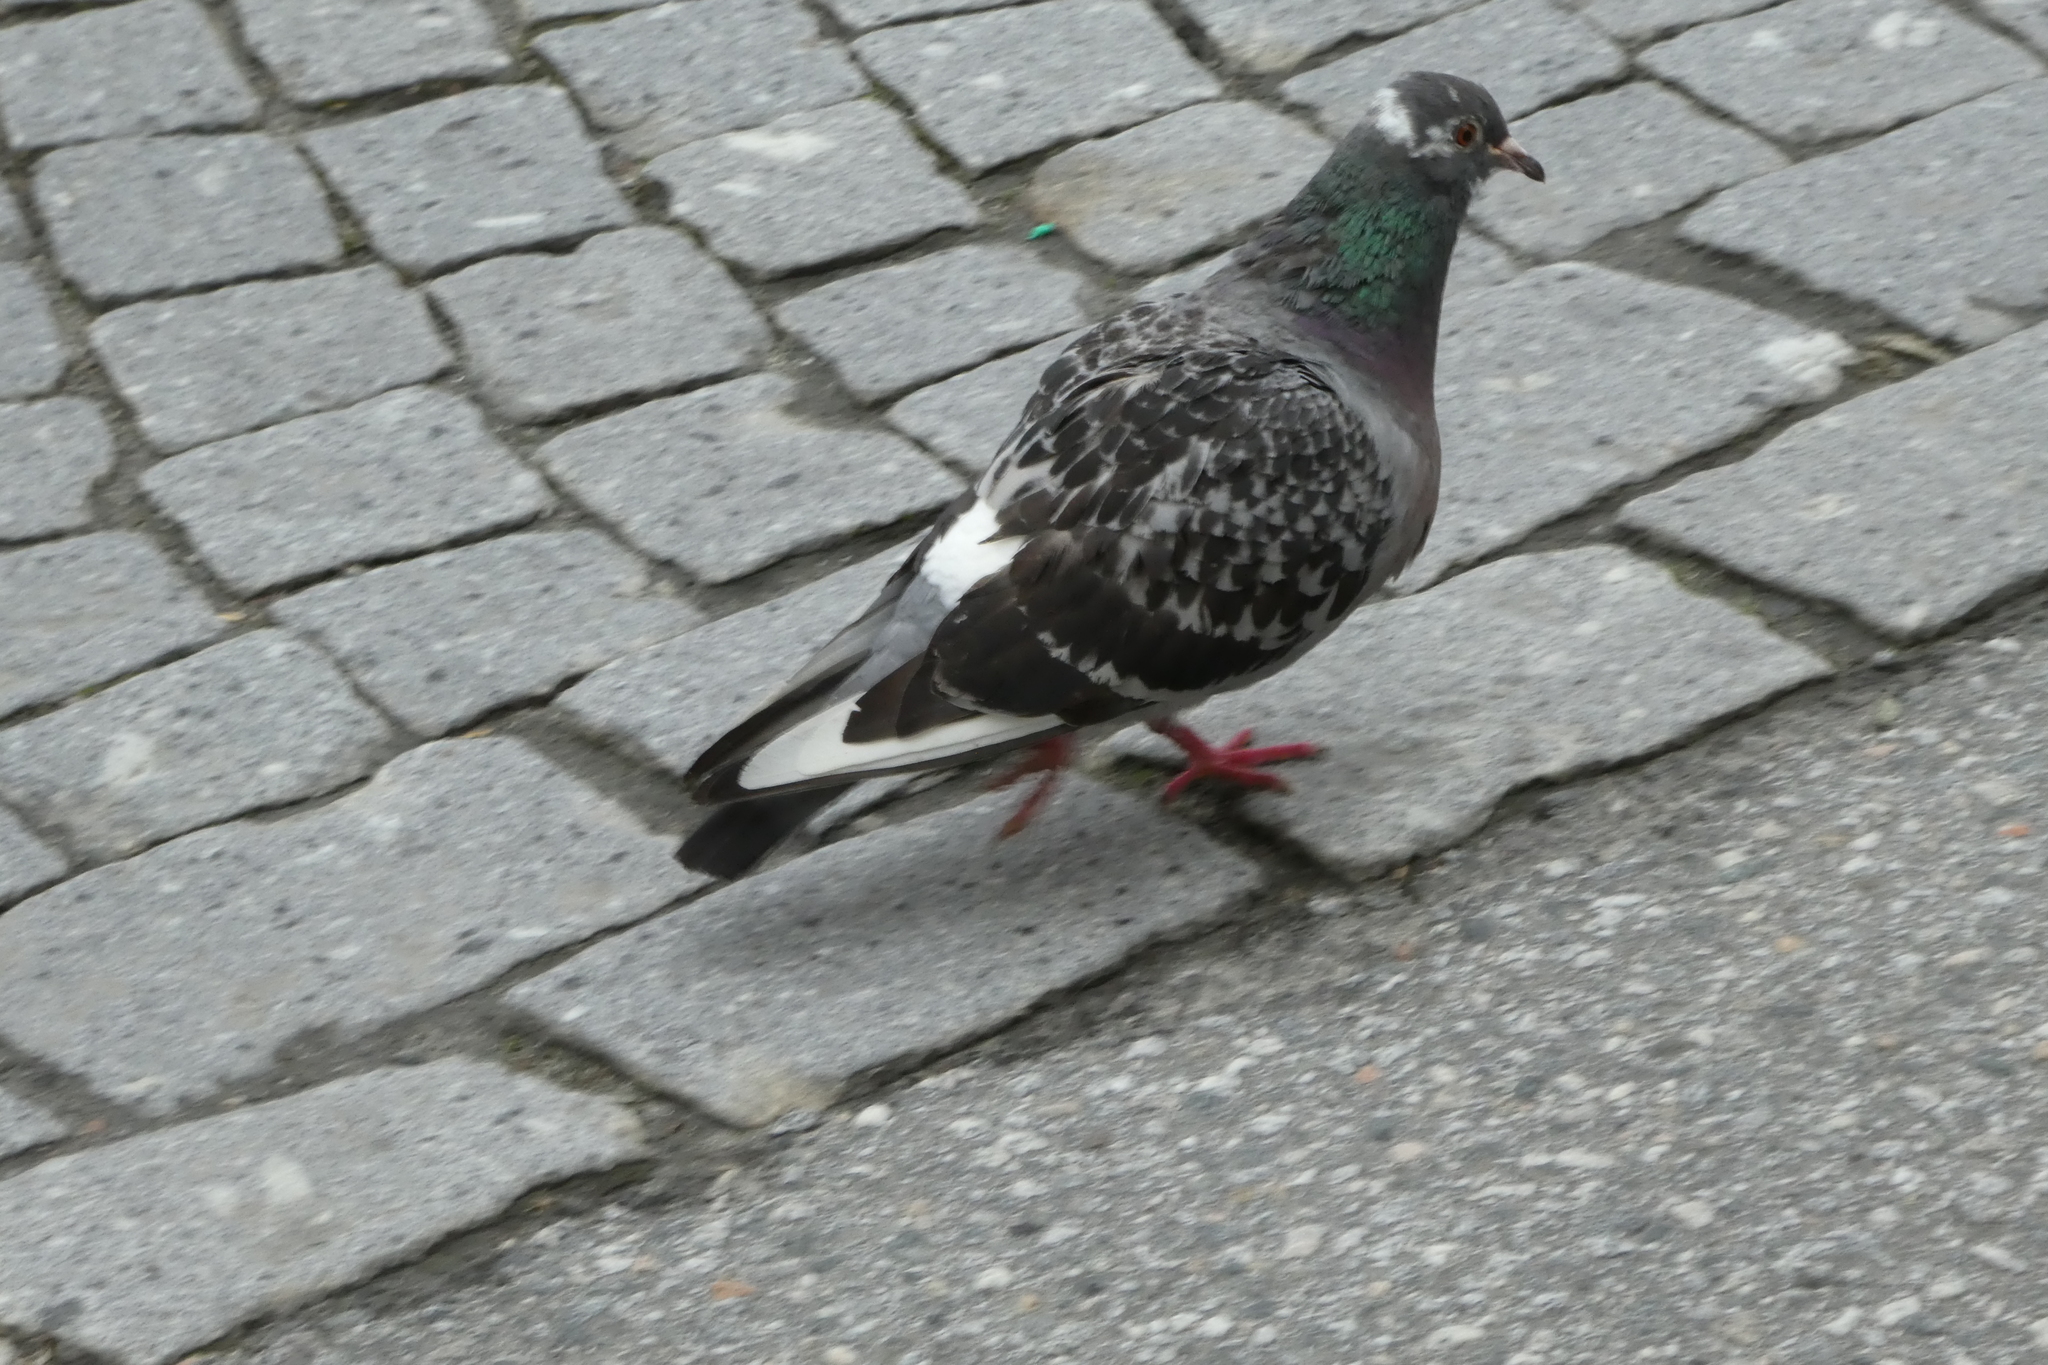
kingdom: Animalia
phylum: Chordata
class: Aves
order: Columbiformes
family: Columbidae
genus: Columba
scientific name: Columba livia
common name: Rock pigeon
